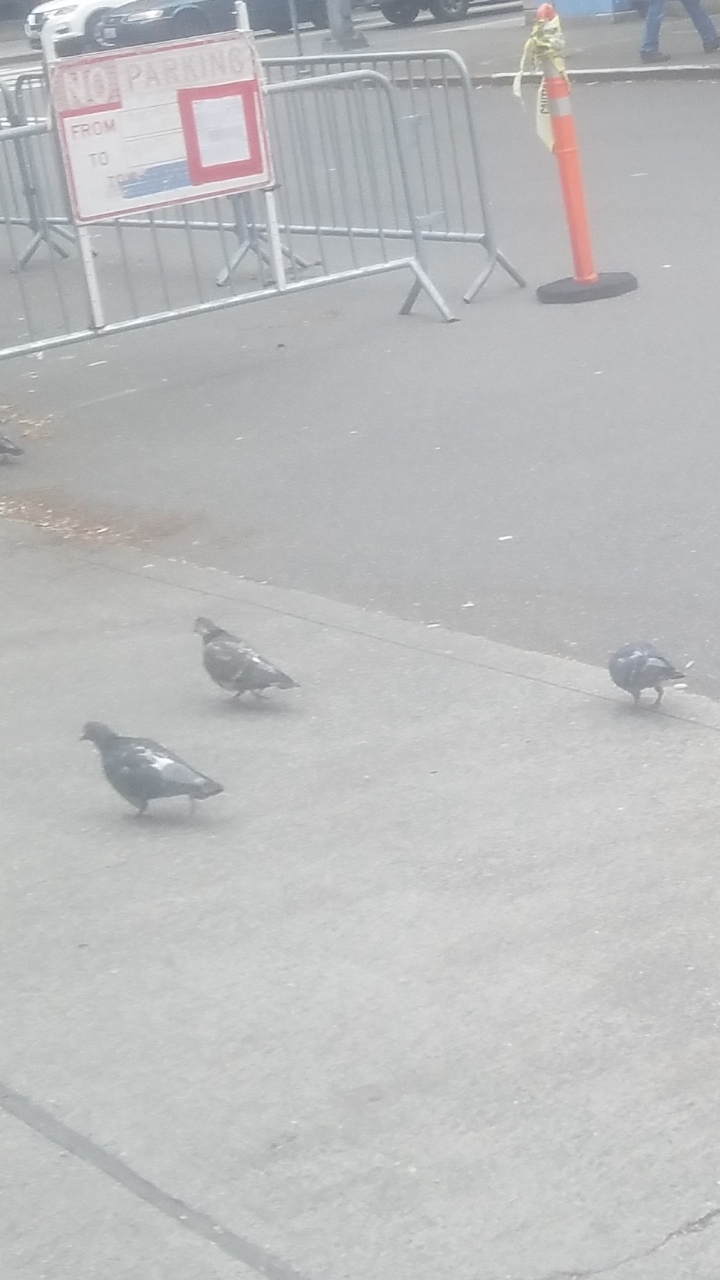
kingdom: Animalia
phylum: Chordata
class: Aves
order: Columbiformes
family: Columbidae
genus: Columba
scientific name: Columba livia
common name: Rock pigeon
